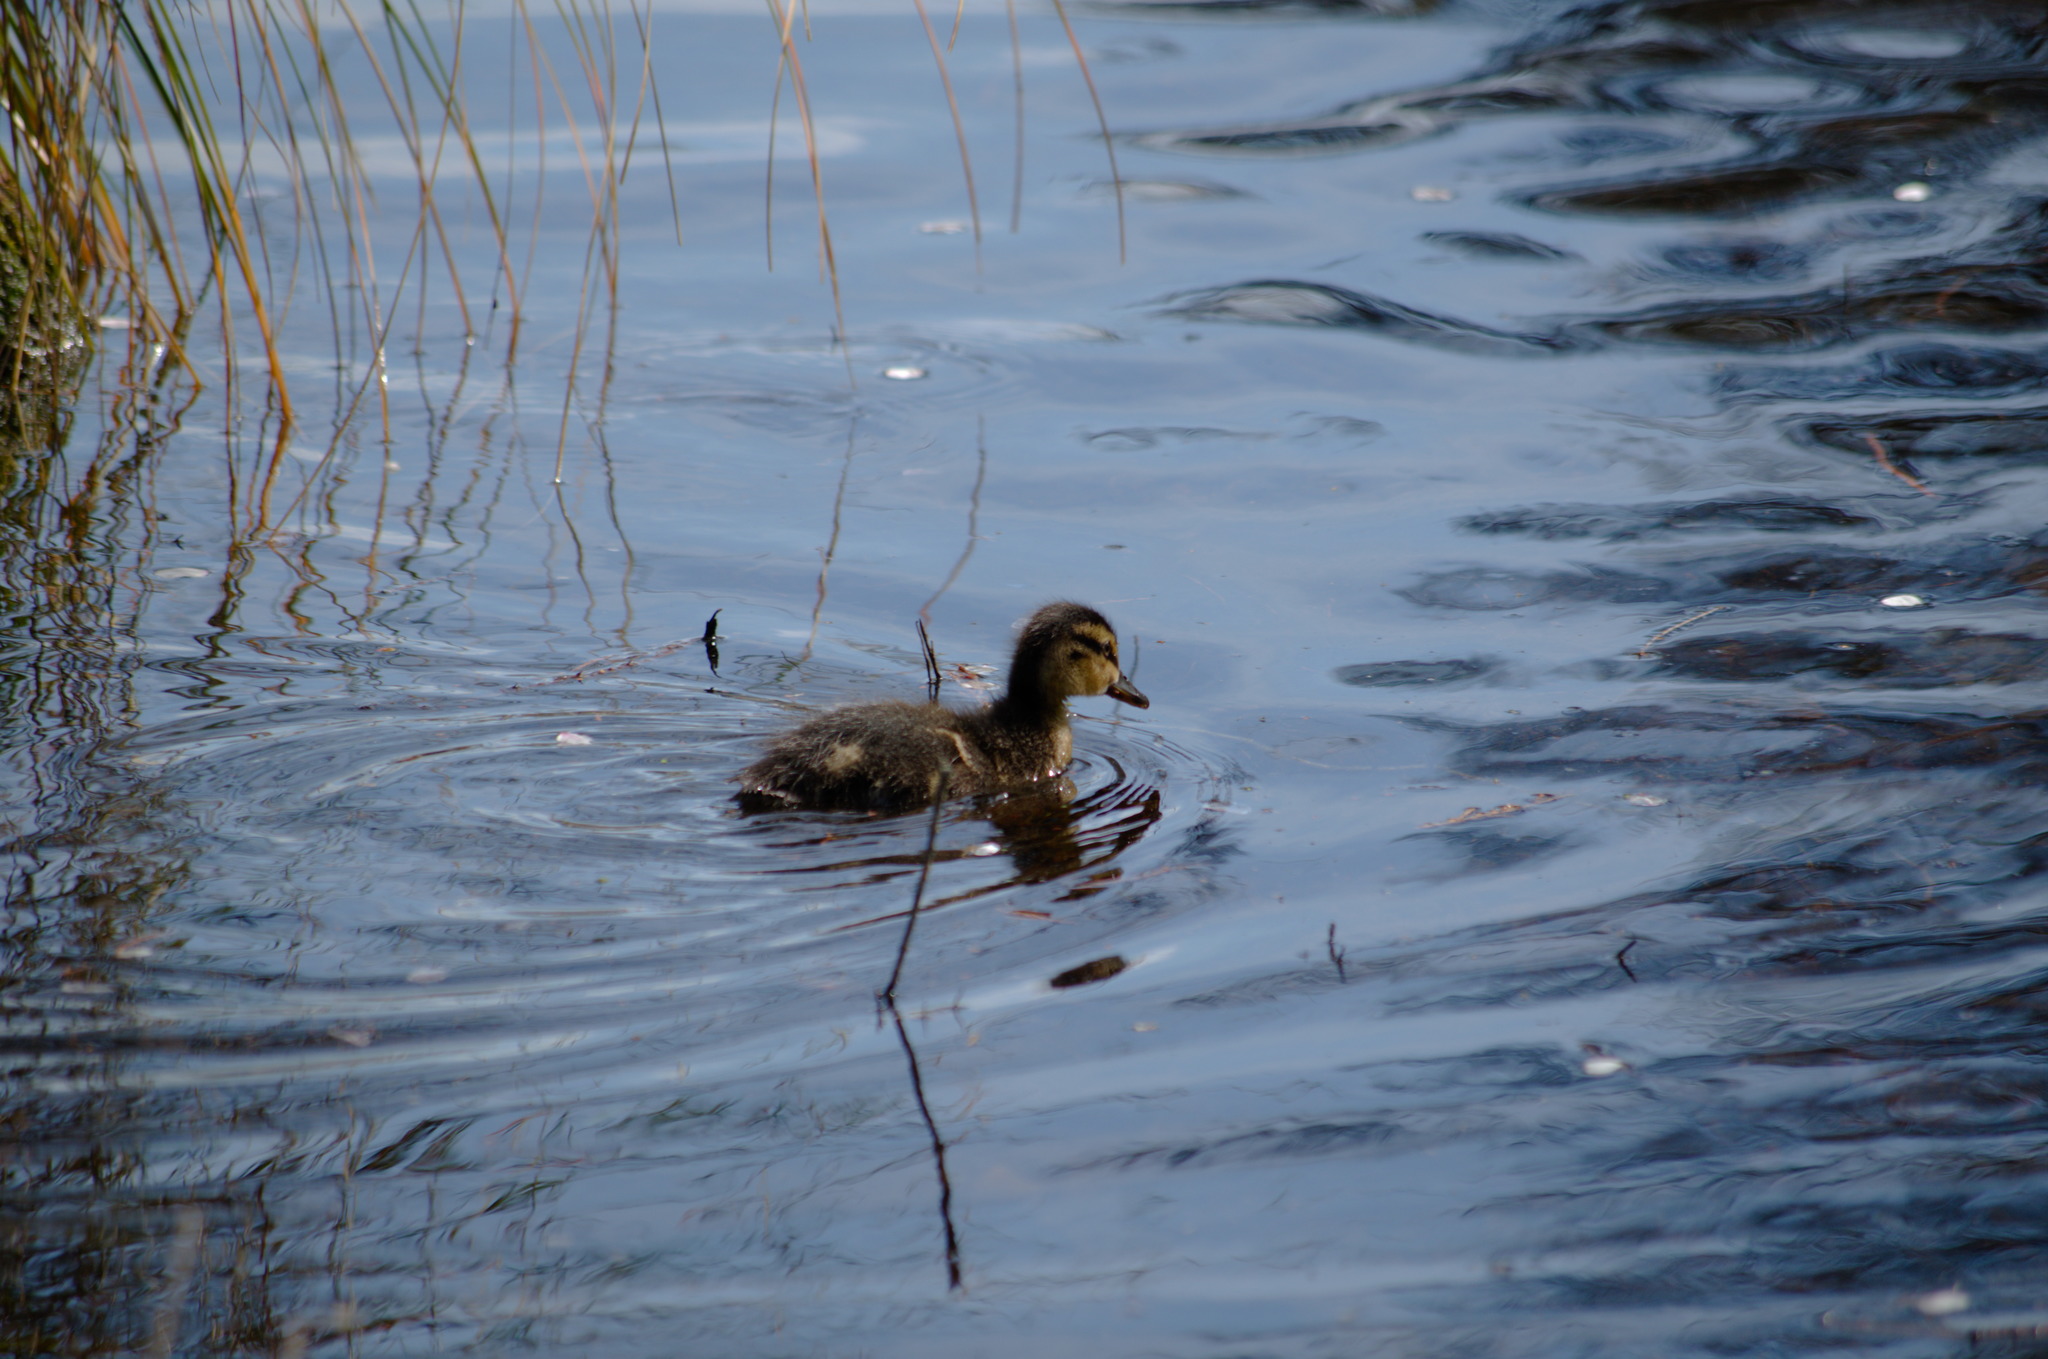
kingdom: Animalia
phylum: Chordata
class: Aves
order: Anseriformes
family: Anatidae
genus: Anas
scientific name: Anas
